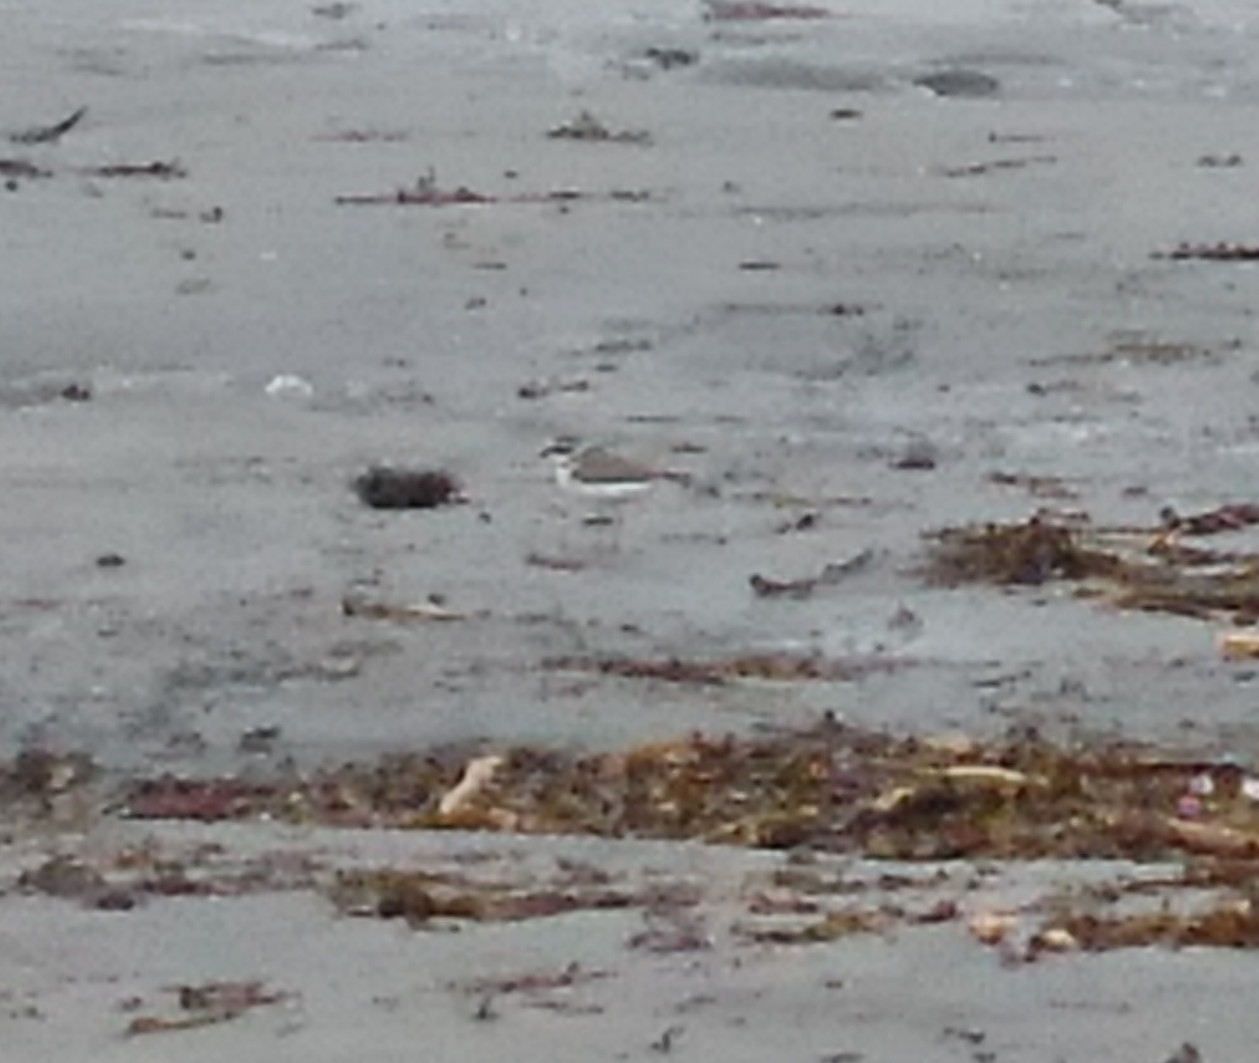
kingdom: Animalia
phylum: Chordata
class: Aves
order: Charadriiformes
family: Charadriidae
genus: Charadrius
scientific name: Charadrius hiaticula
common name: Common ringed plover
